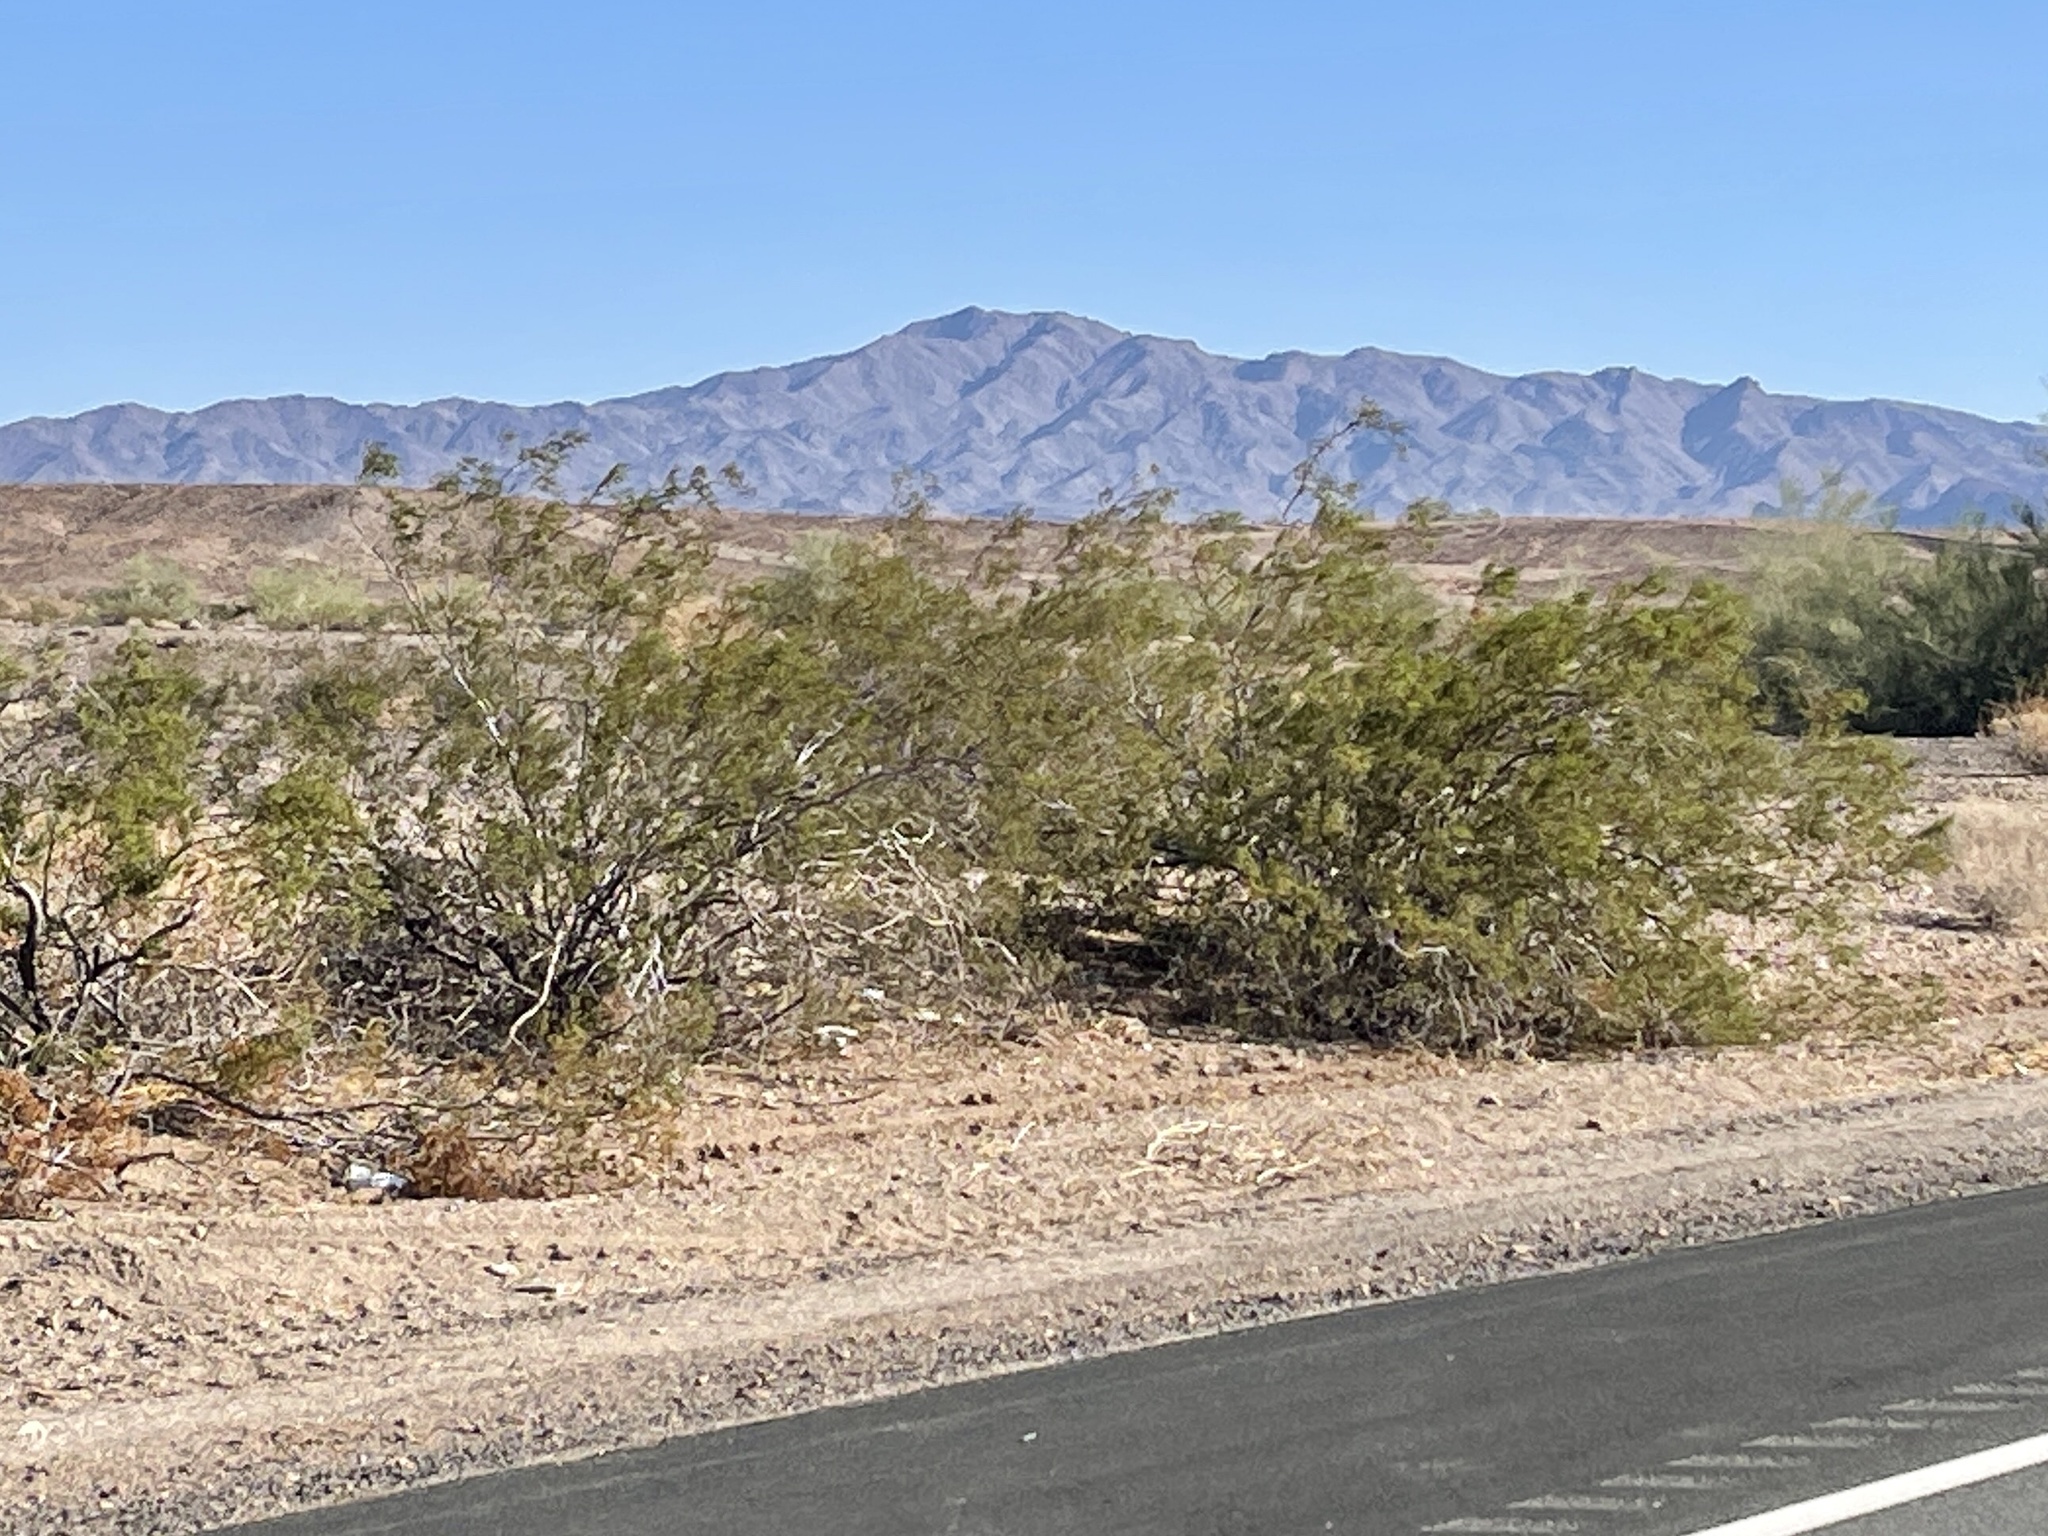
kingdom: Plantae
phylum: Tracheophyta
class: Magnoliopsida
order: Zygophyllales
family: Zygophyllaceae
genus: Larrea
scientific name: Larrea tridentata
